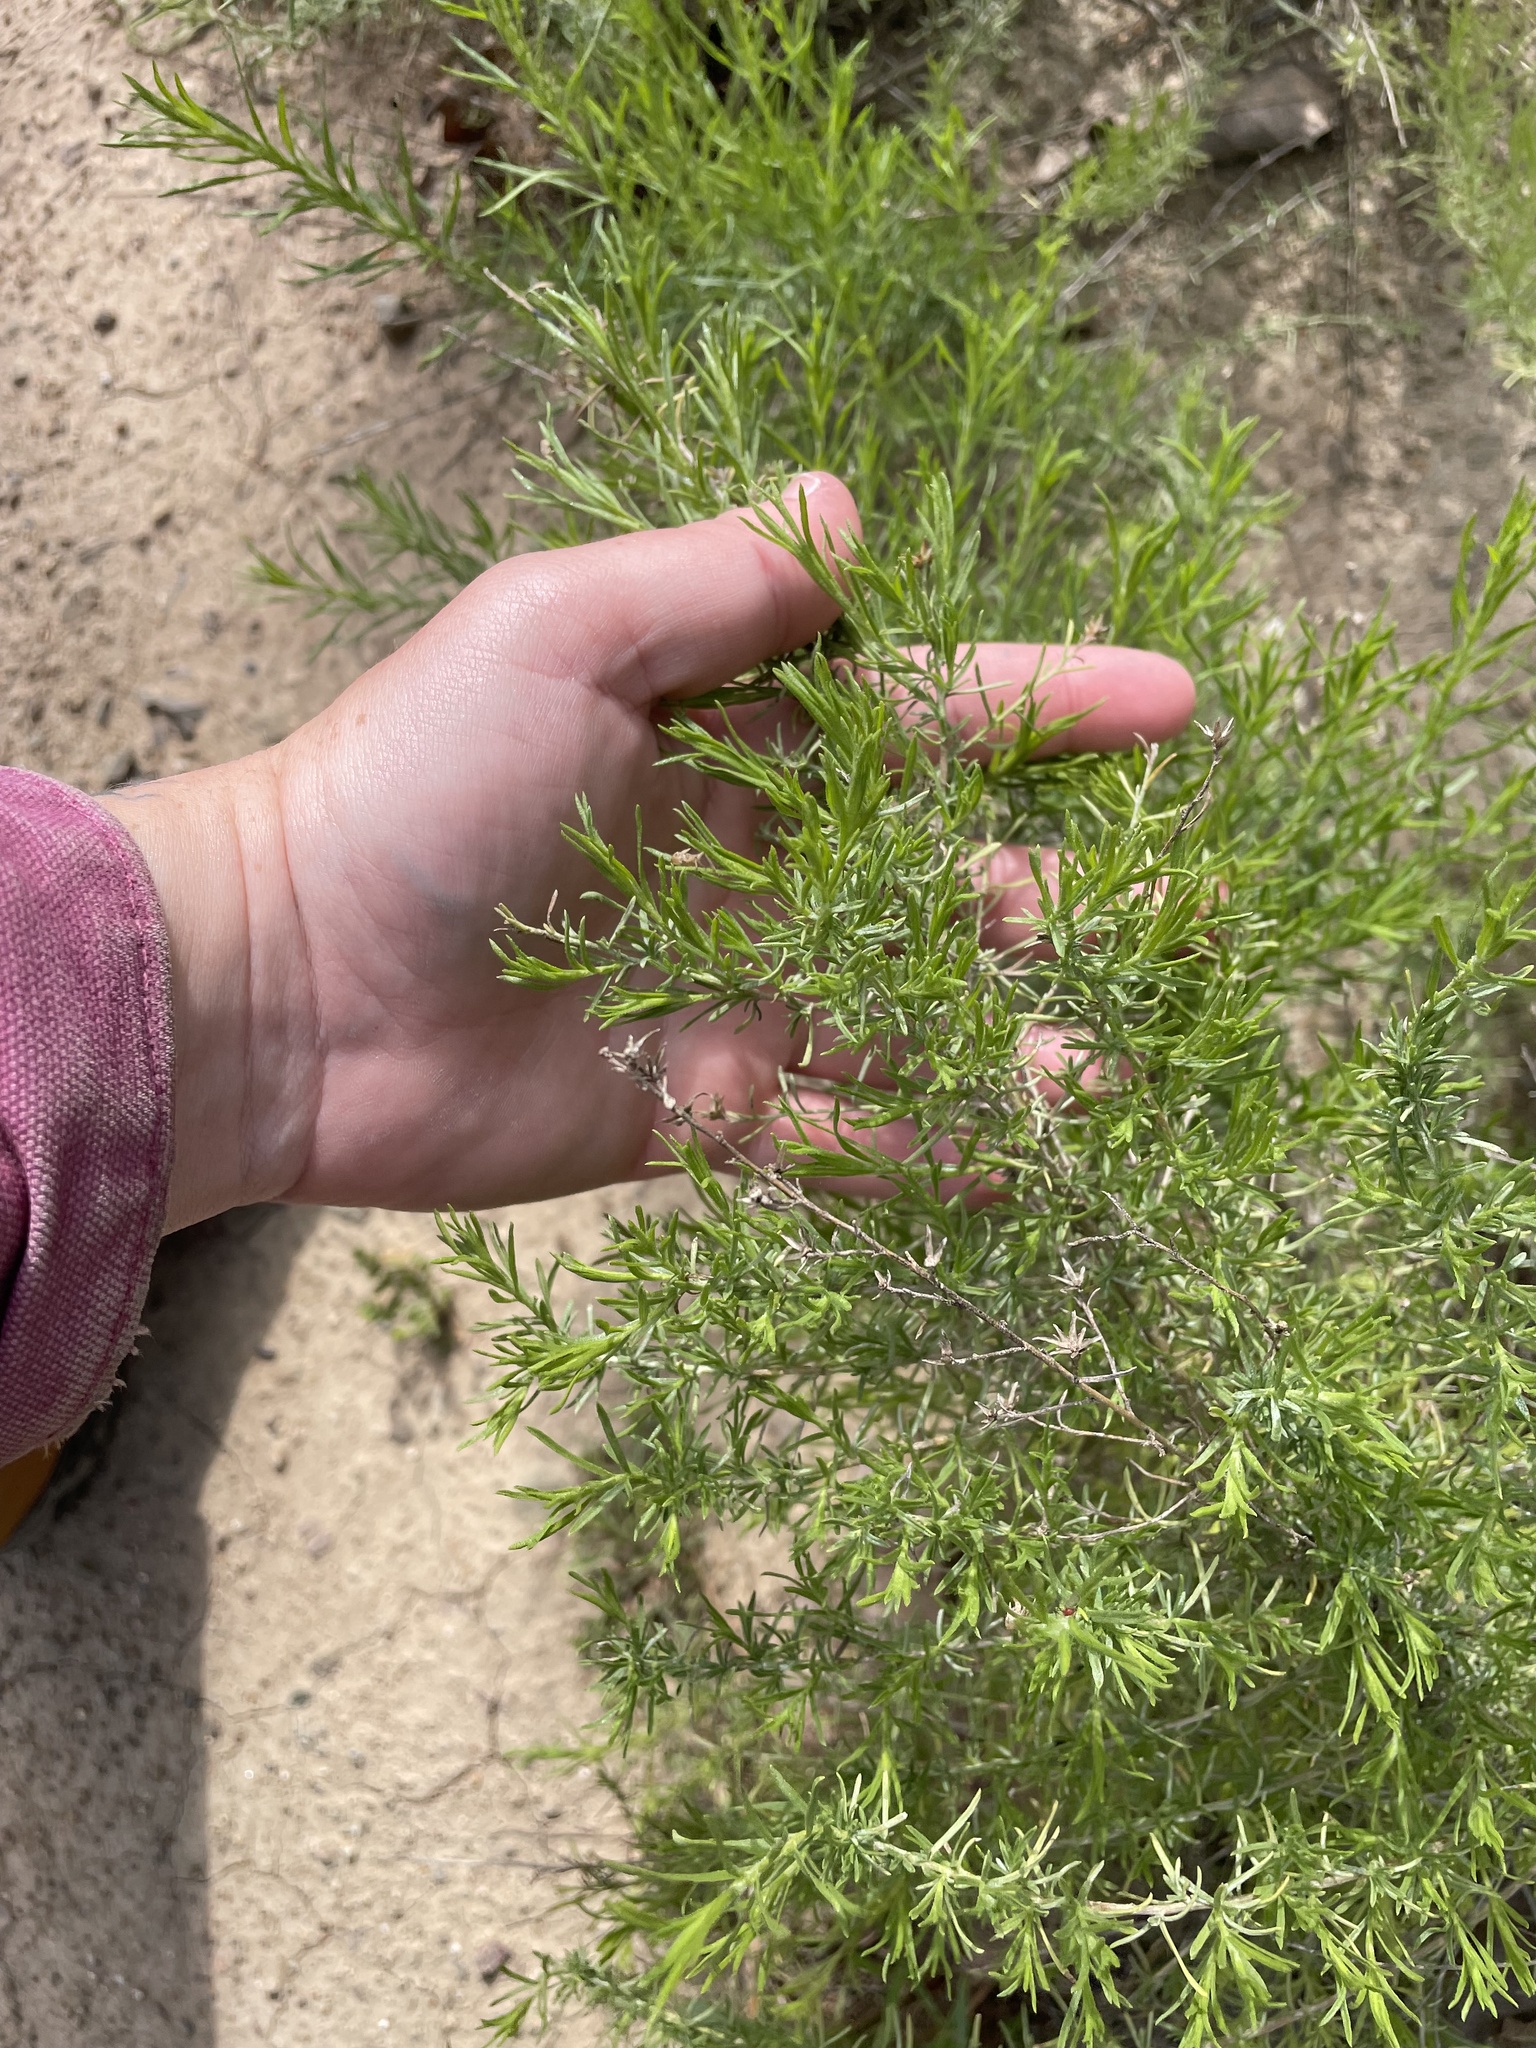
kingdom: Plantae
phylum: Tracheophyta
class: Magnoliopsida
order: Asterales
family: Asteraceae
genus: Ericameria
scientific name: Ericameria palmeri
